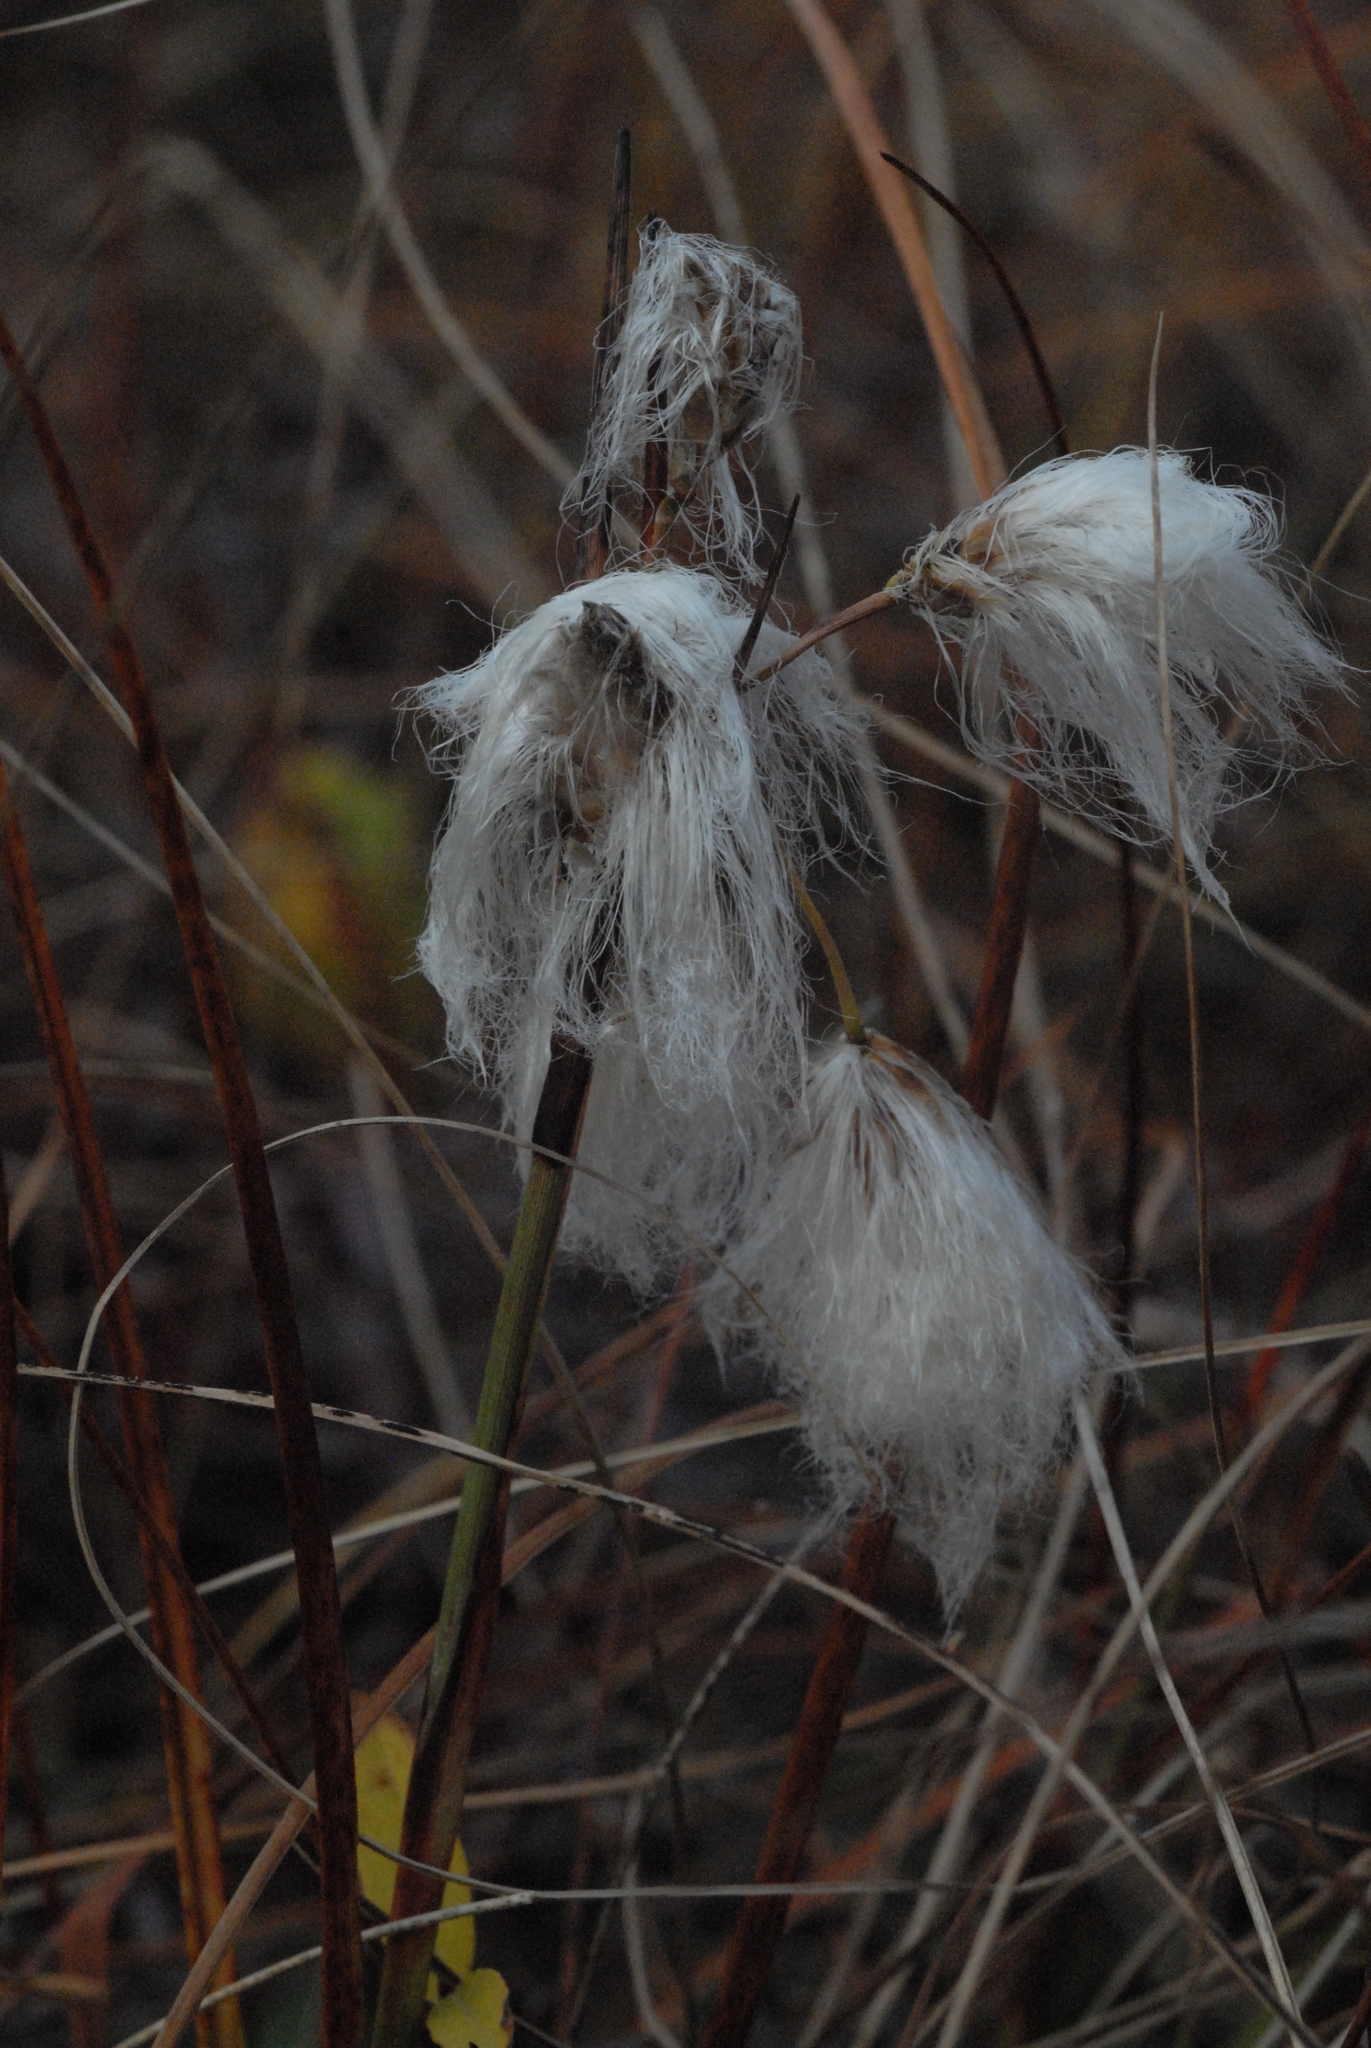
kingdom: Plantae
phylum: Tracheophyta
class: Liliopsida
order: Poales
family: Cyperaceae
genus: Eriophorum
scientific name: Eriophorum angustifolium
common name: Common cottongrass
